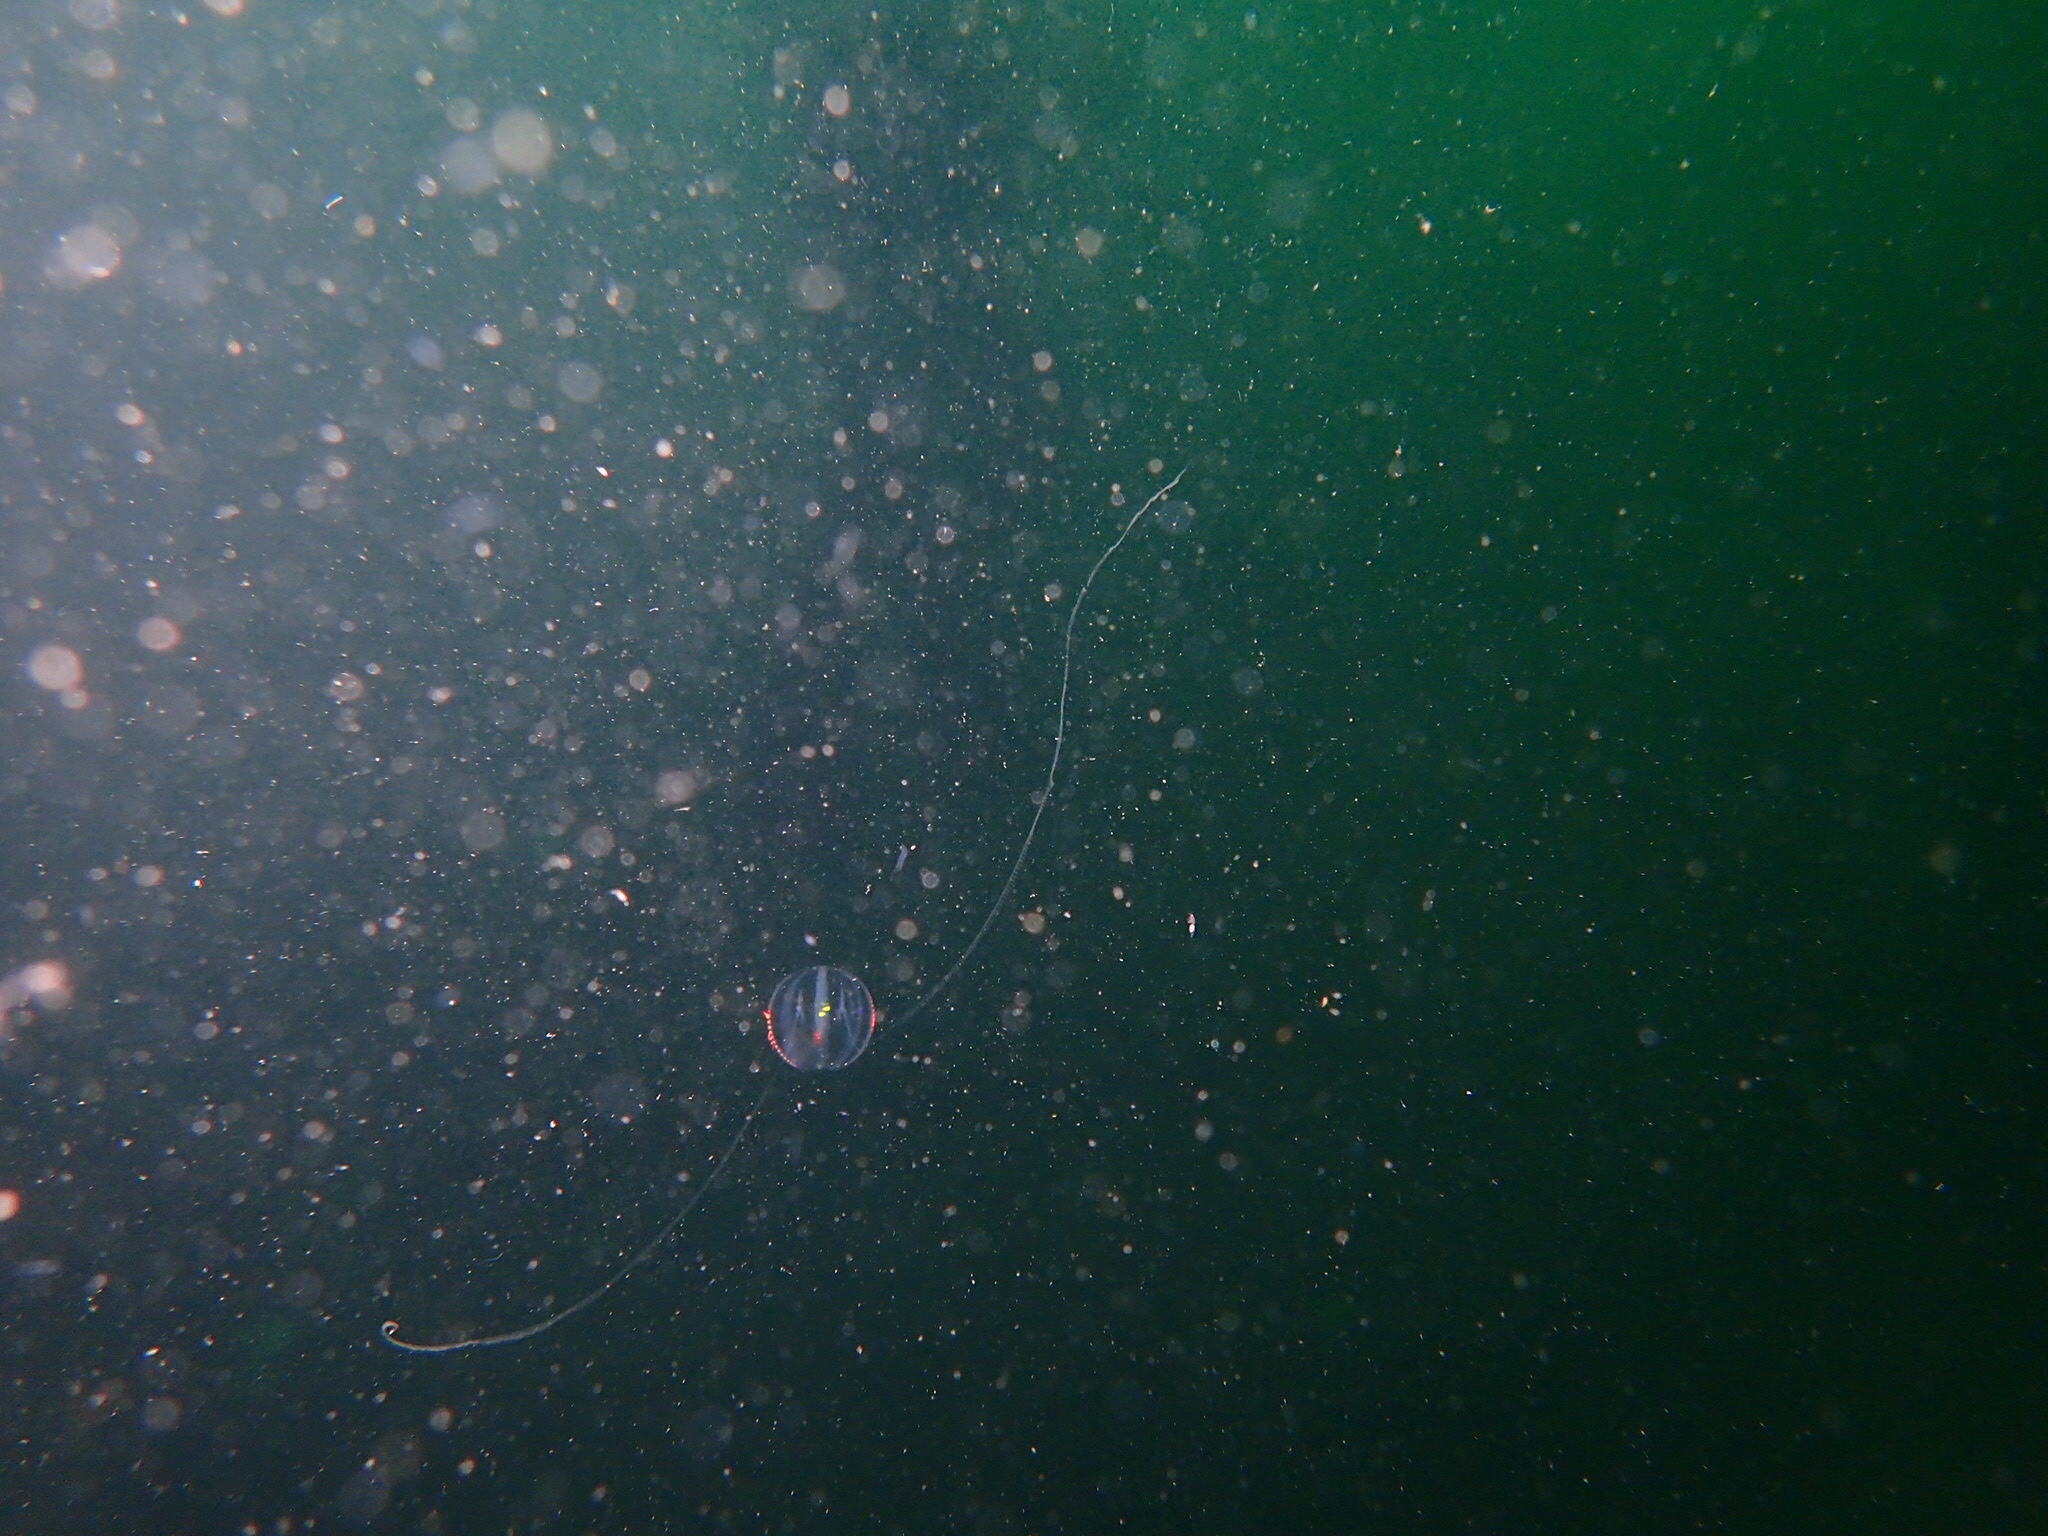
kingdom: Animalia
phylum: Ctenophora
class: Tentaculata
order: Cydippida
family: Pleurobrachiidae
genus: Pleurobrachia
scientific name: Pleurobrachia pileus
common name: Sea gooseberry
